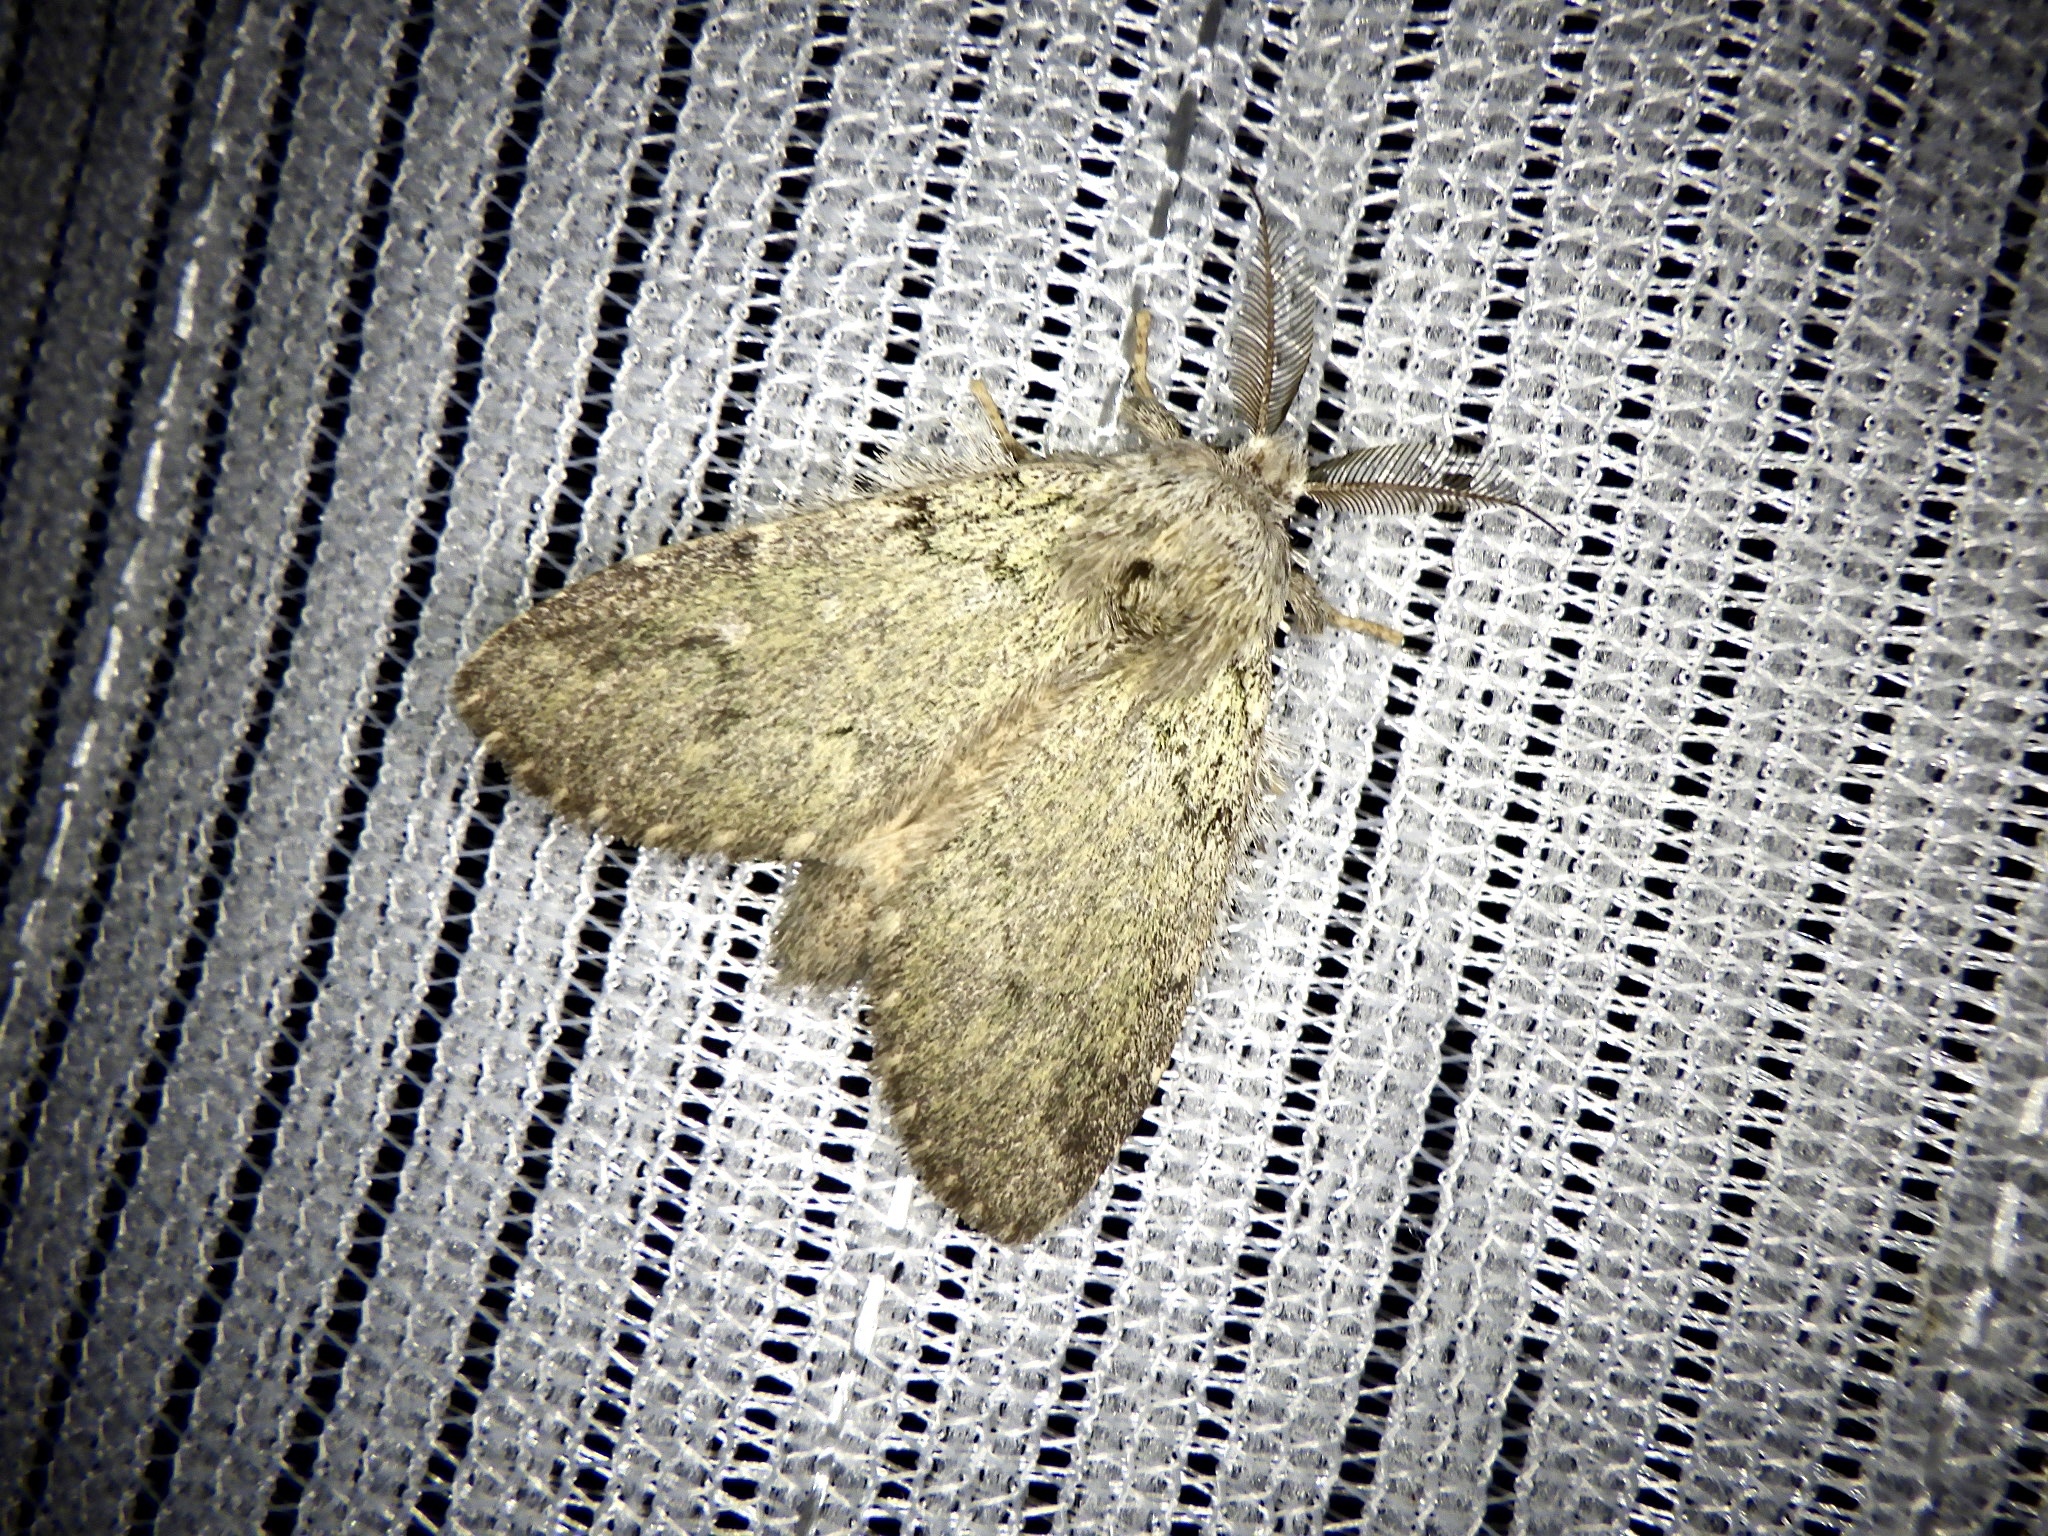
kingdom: Animalia
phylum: Arthropoda
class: Insecta
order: Lepidoptera
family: Notodontidae
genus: Syntypistis
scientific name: Syntypistis
